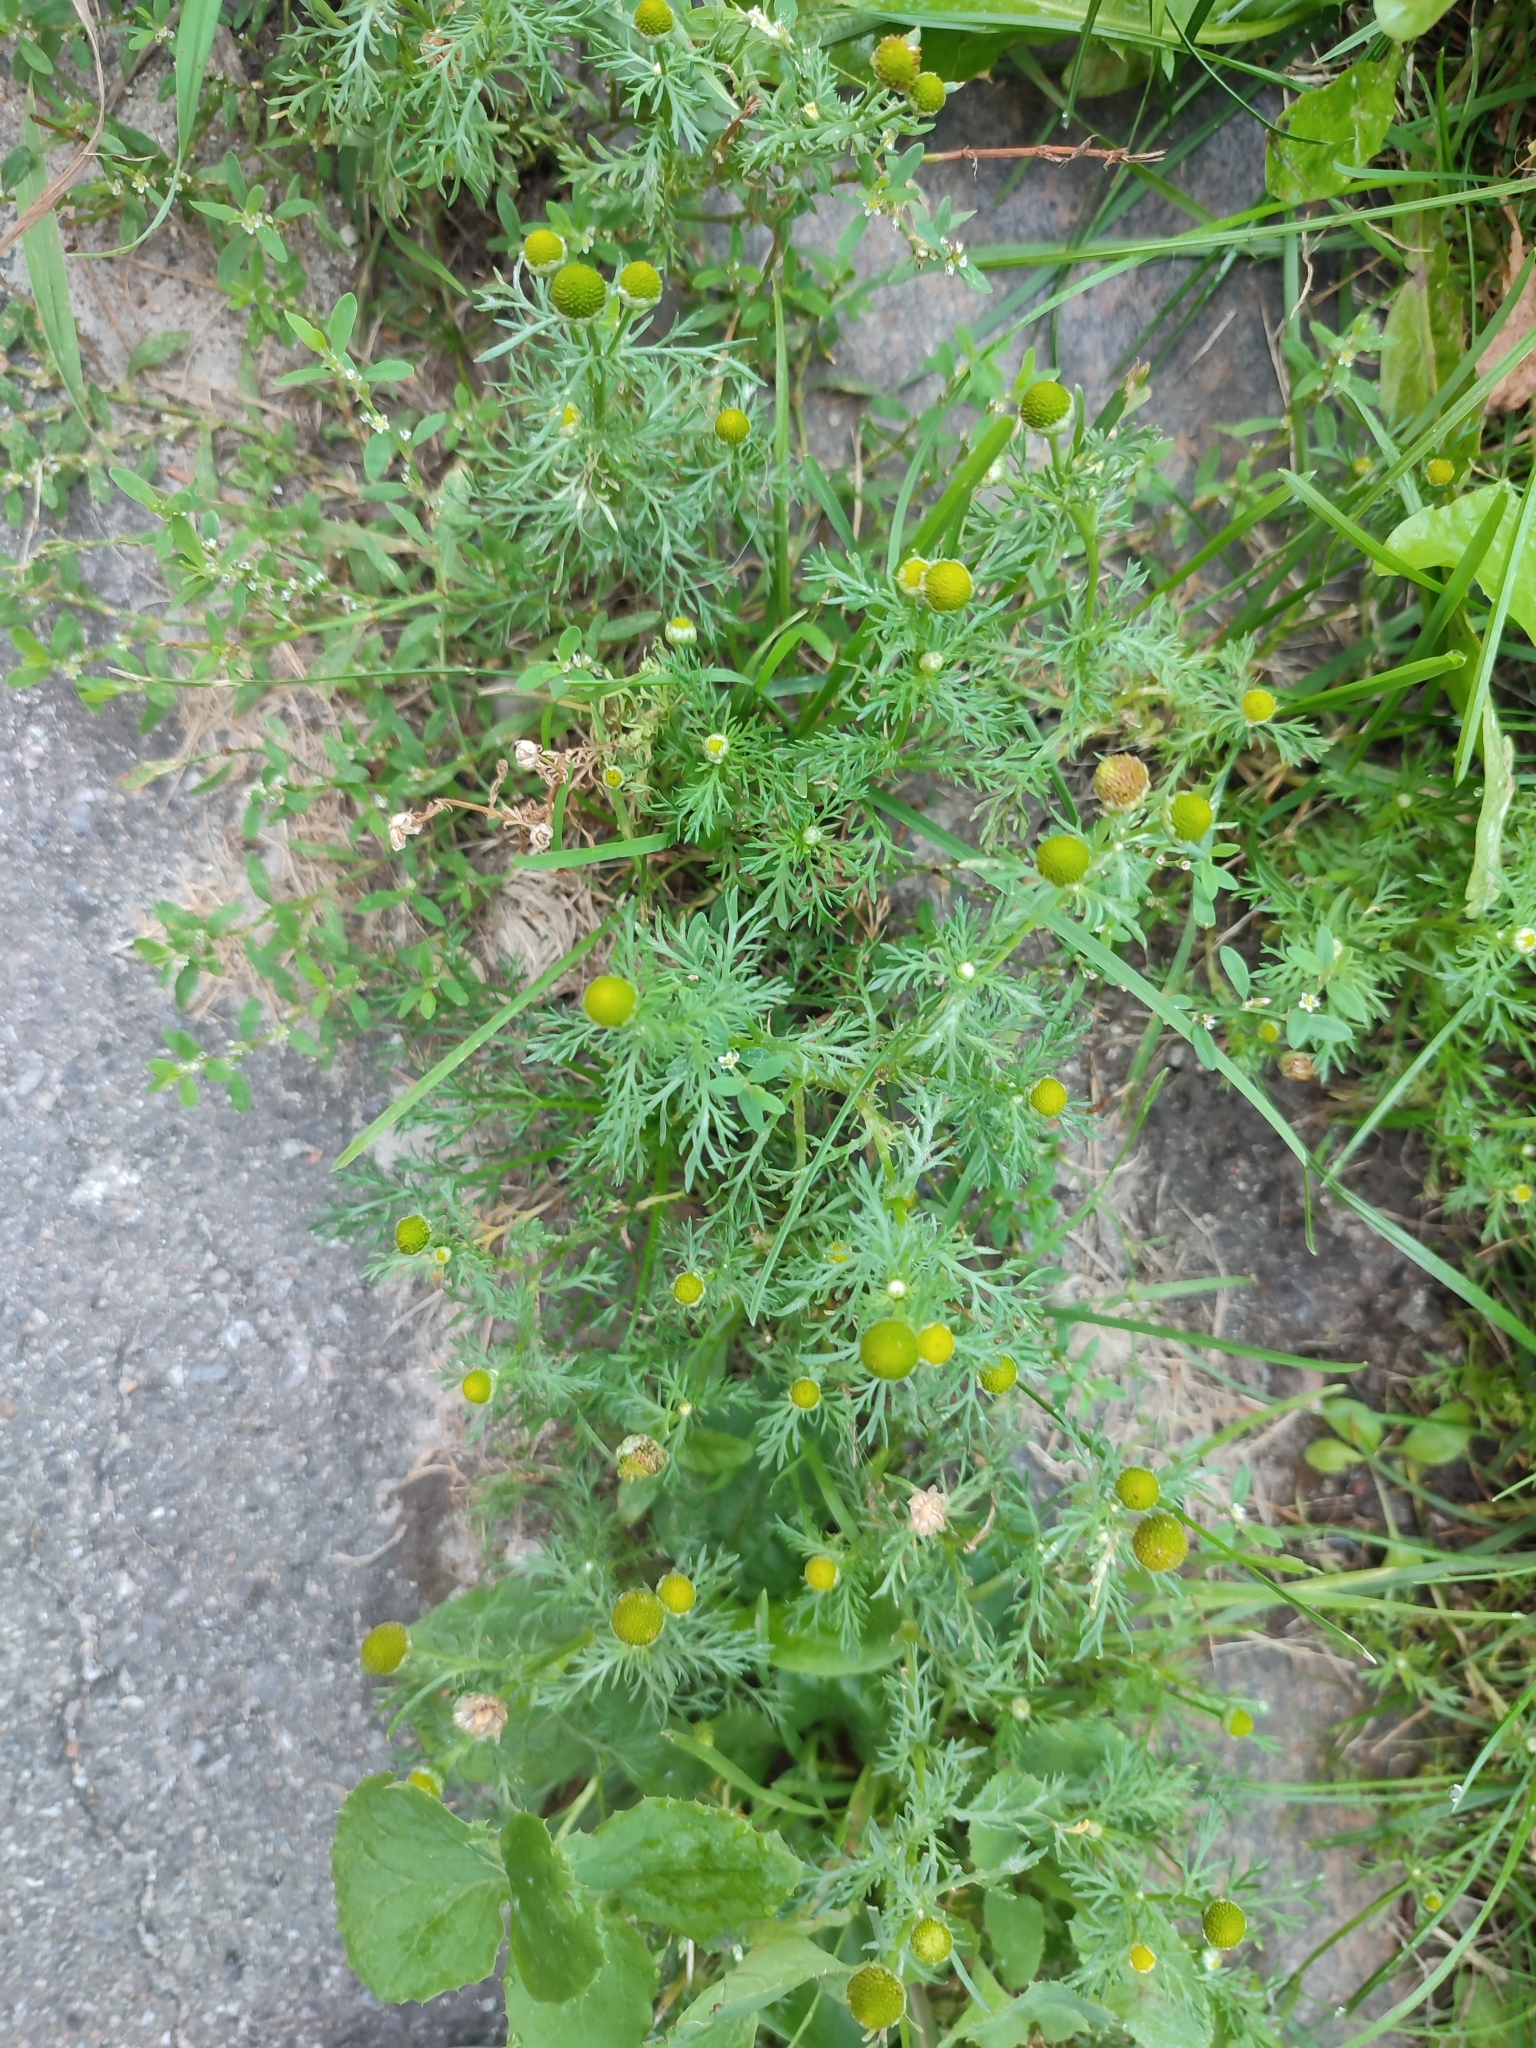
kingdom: Plantae
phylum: Tracheophyta
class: Magnoliopsida
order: Asterales
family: Asteraceae
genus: Matricaria
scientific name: Matricaria discoidea
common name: Disc mayweed
